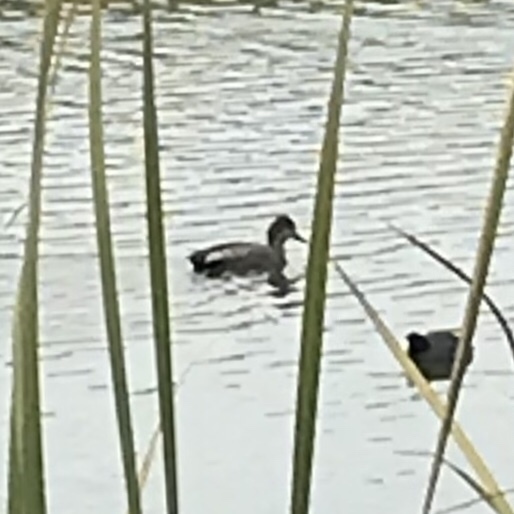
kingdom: Animalia
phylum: Chordata
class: Aves
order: Anseriformes
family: Anatidae
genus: Mareca
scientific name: Mareca strepera
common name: Gadwall
